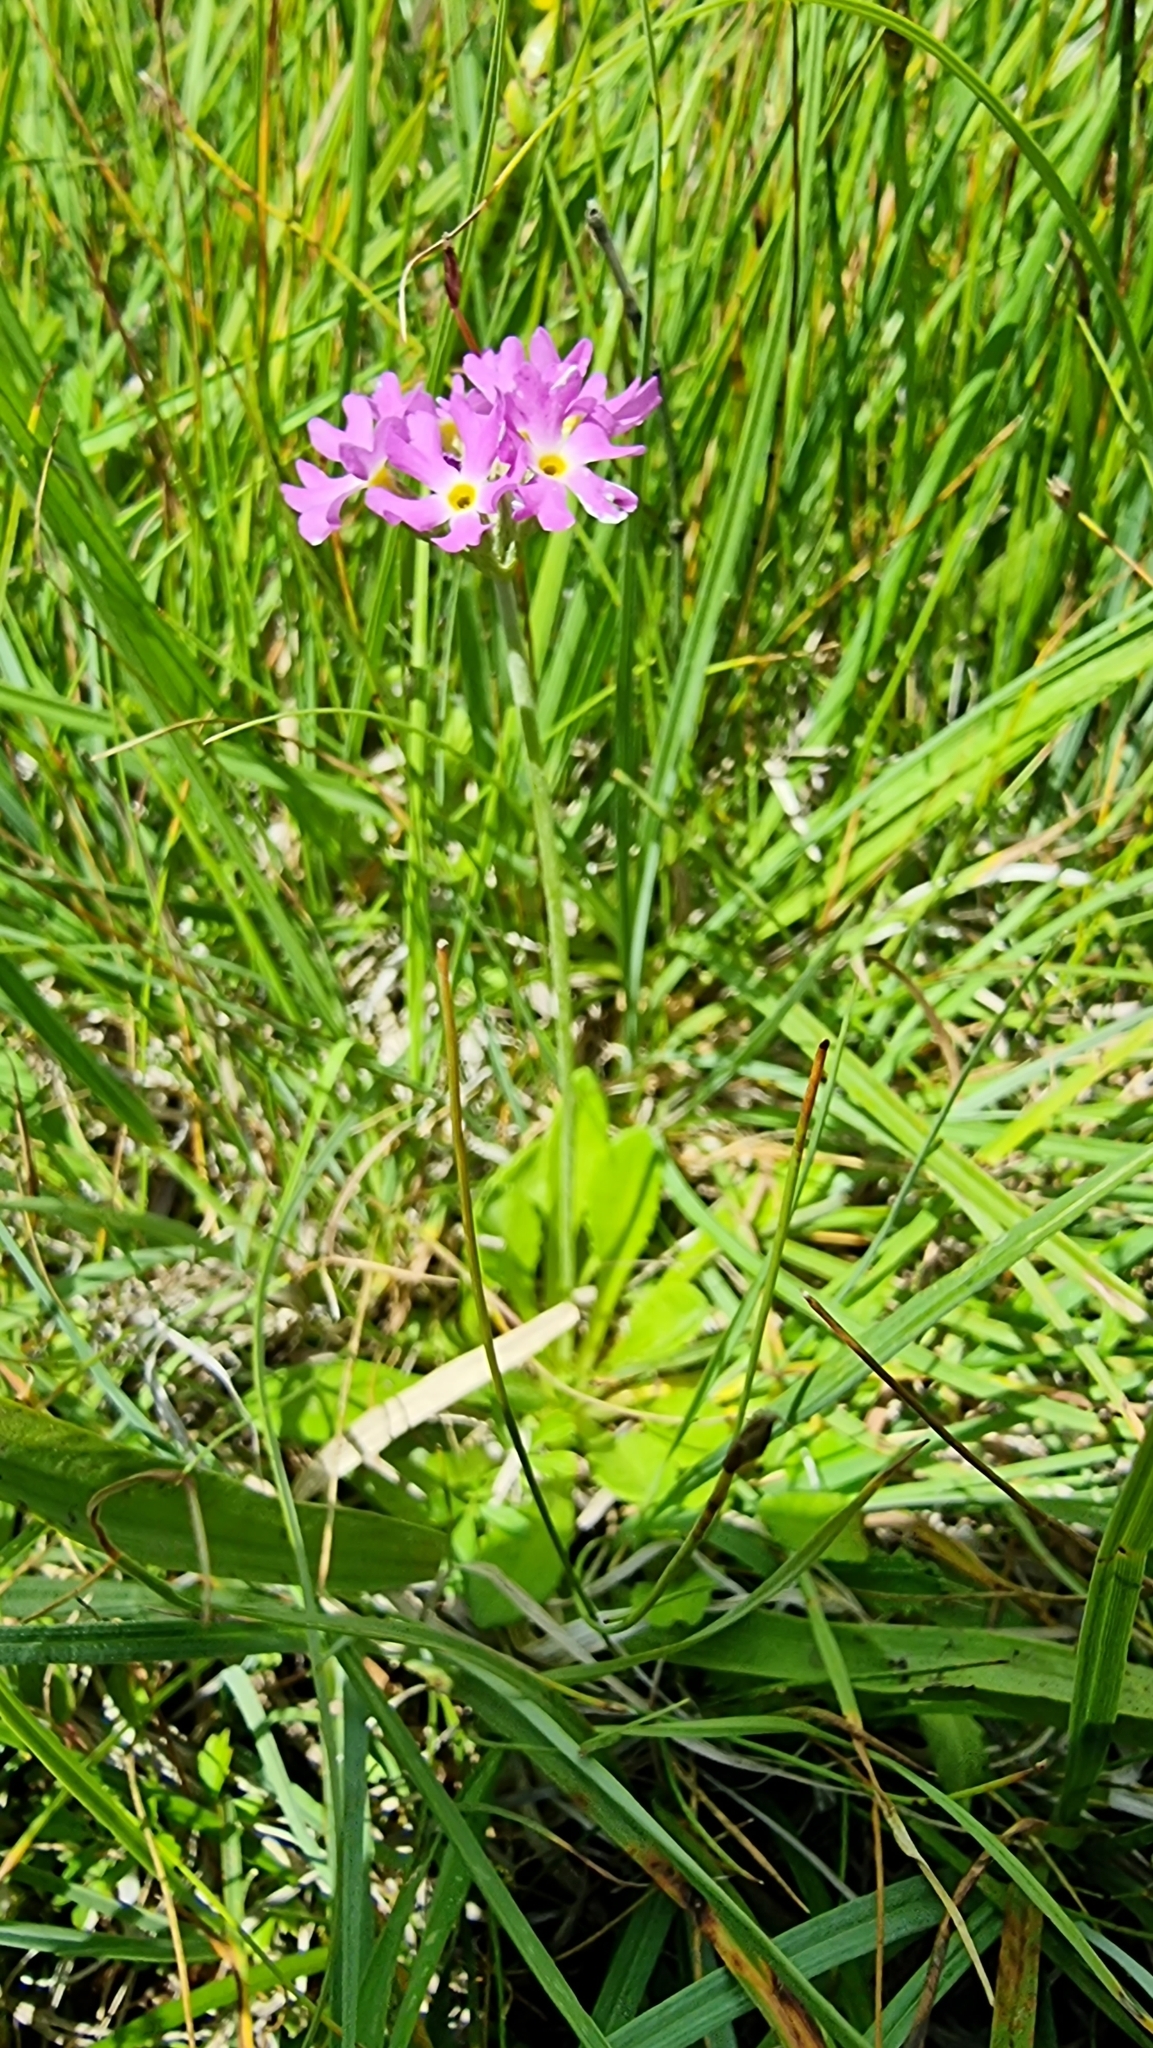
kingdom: Plantae
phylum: Tracheophyta
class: Magnoliopsida
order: Ericales
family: Primulaceae
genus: Primula
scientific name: Primula farinosa
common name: Bird's-eye primrose
